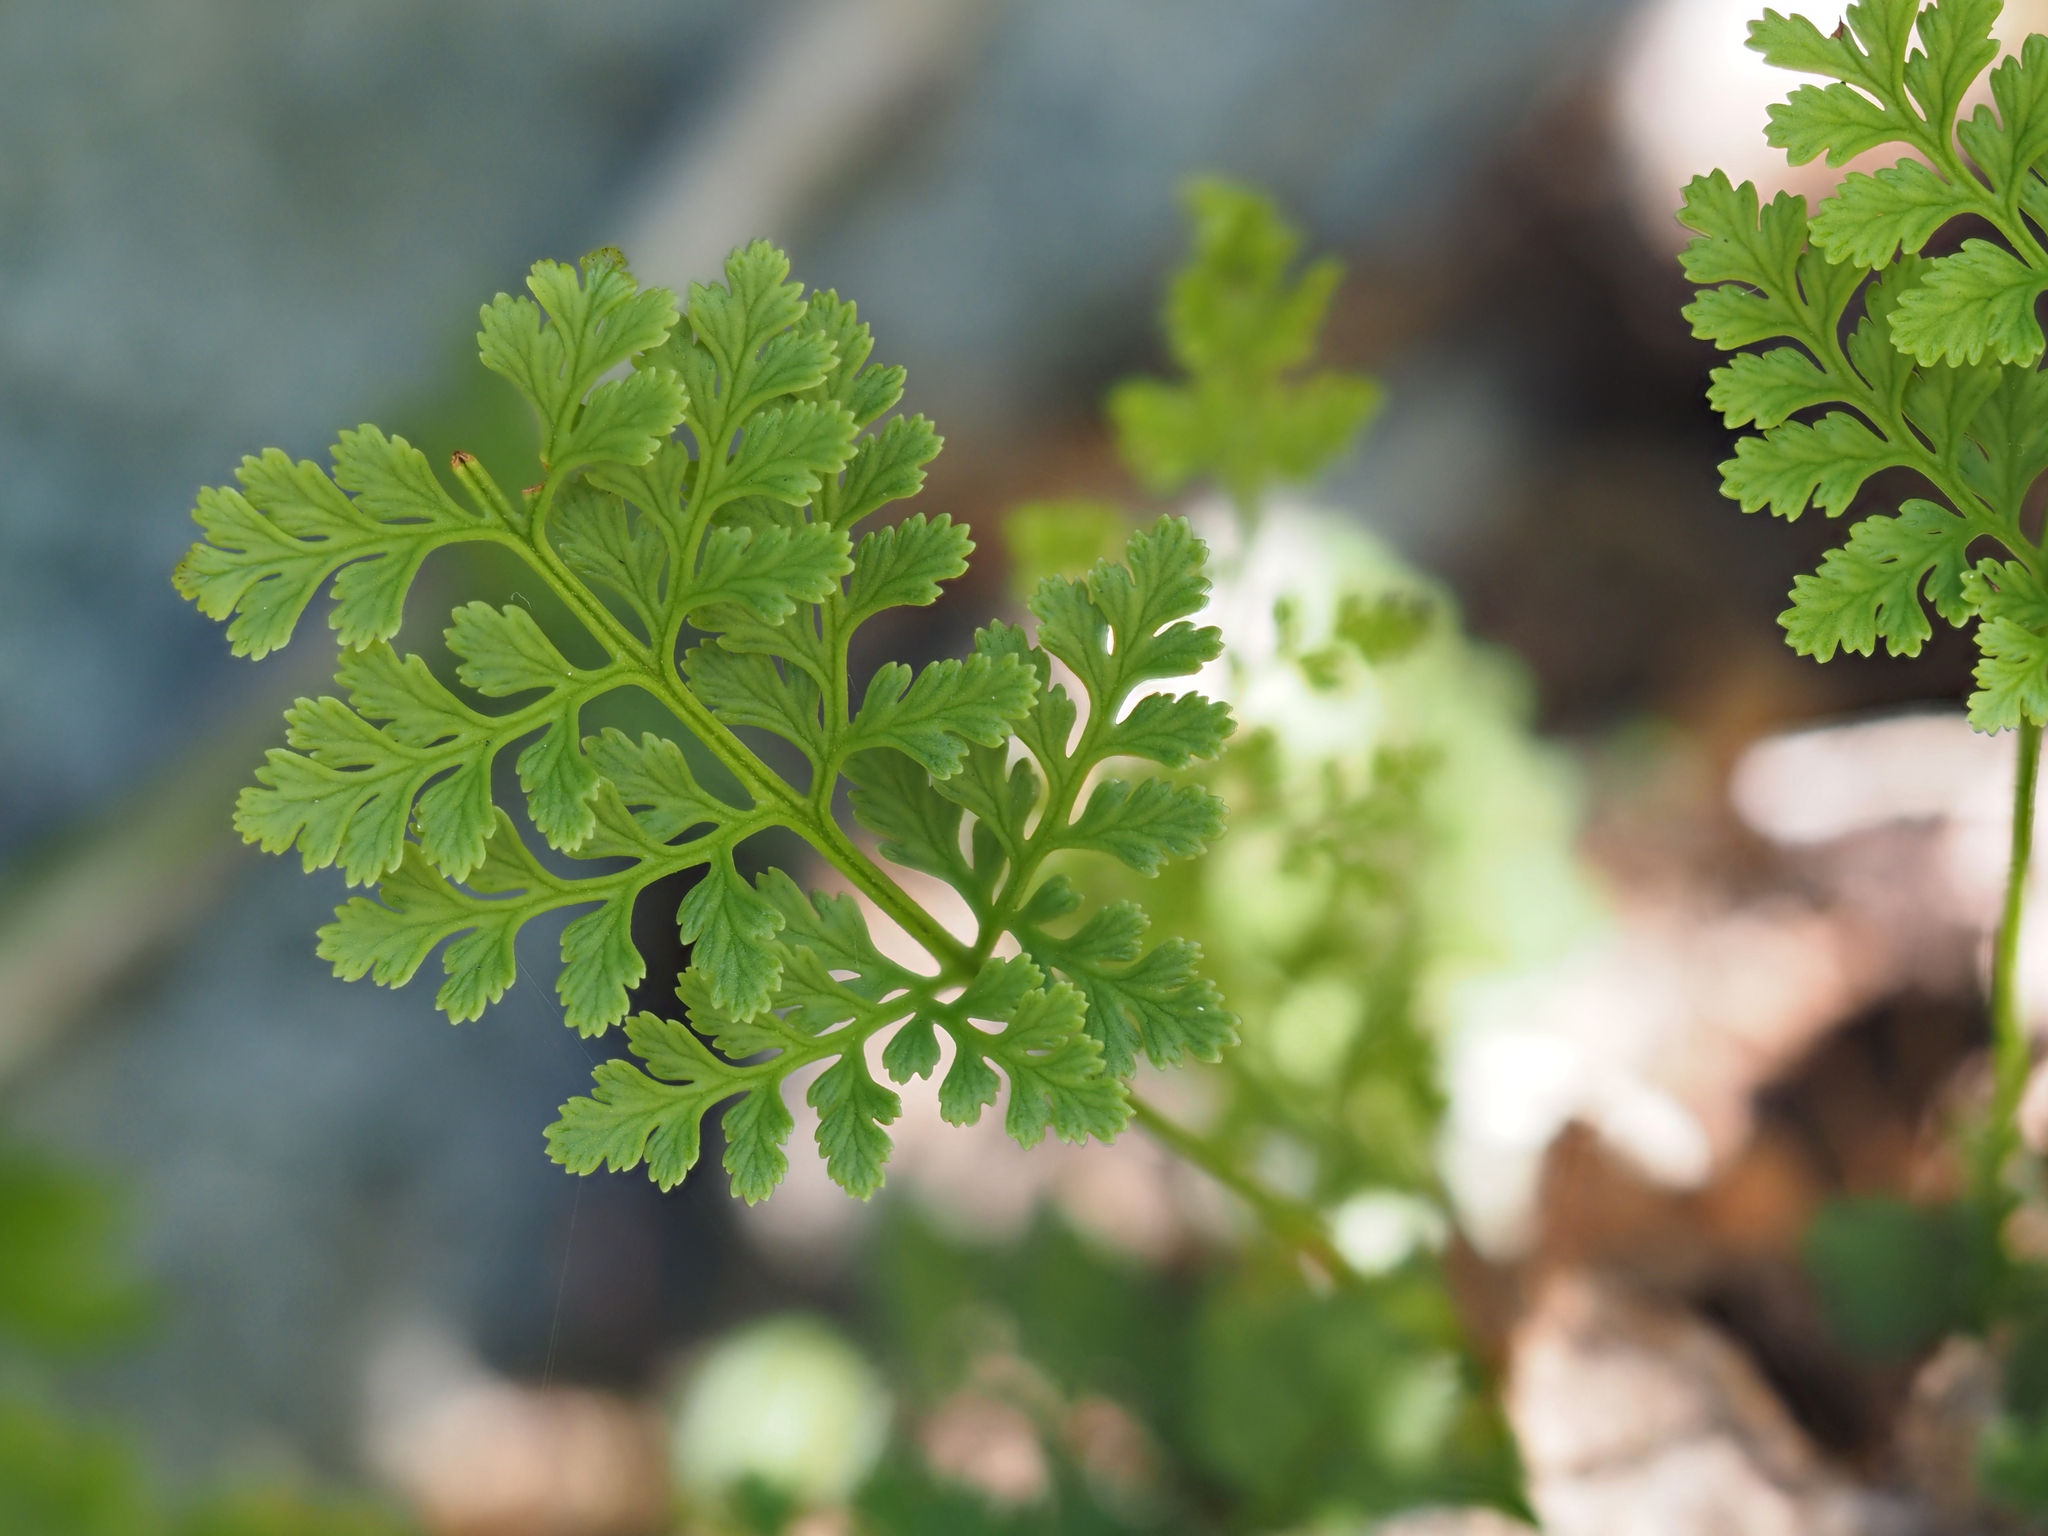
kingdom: Plantae
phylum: Tracheophyta
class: Polypodiopsida
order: Polypodiales
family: Pteridaceae
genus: Cryptogramma
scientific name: Cryptogramma acrostichoides
